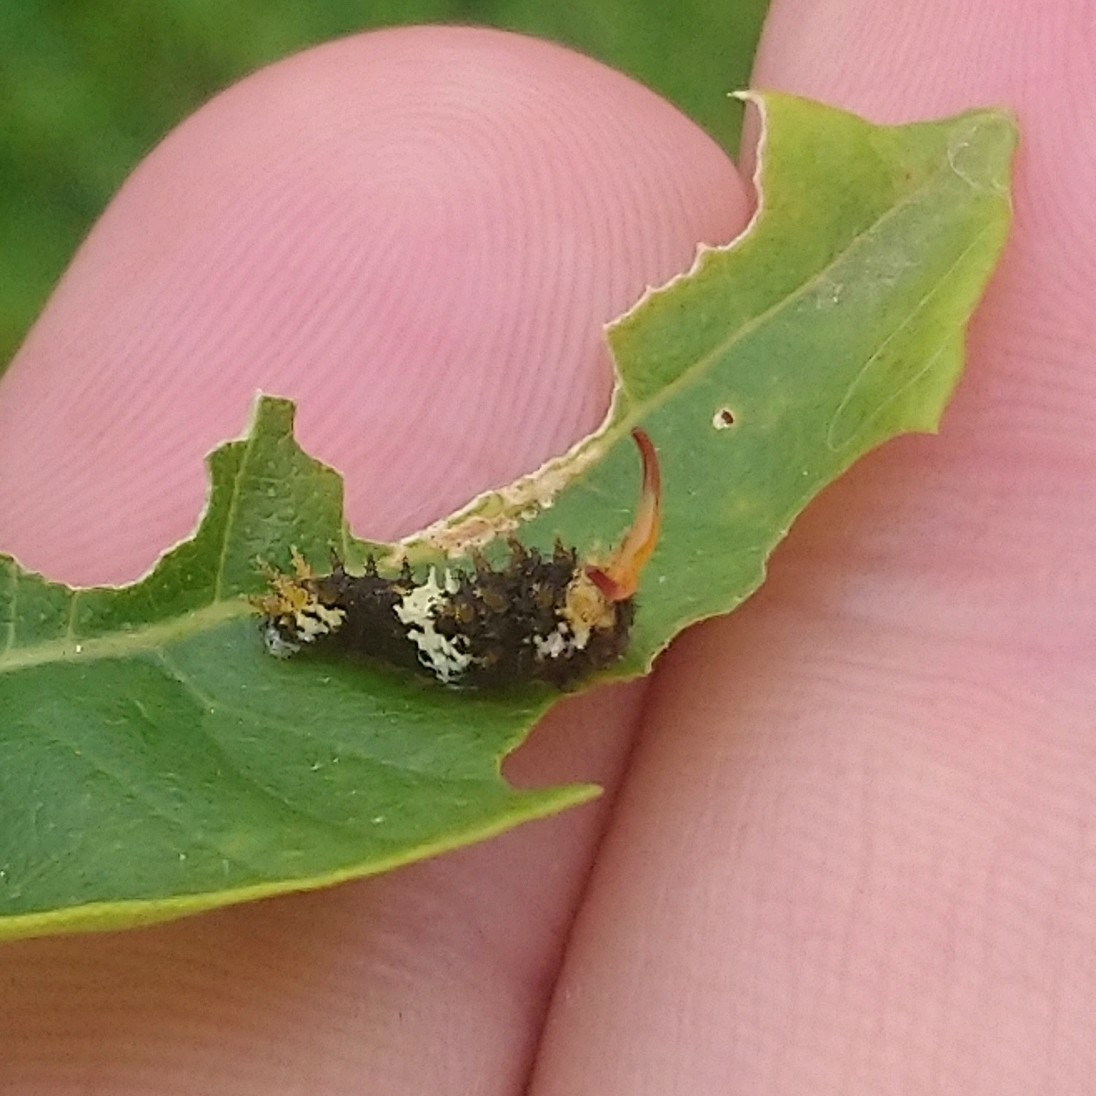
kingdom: Animalia
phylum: Arthropoda
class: Insecta
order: Lepidoptera
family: Papilionidae
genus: Papilio
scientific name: Papilio demodocus
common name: Christmas butterfly
